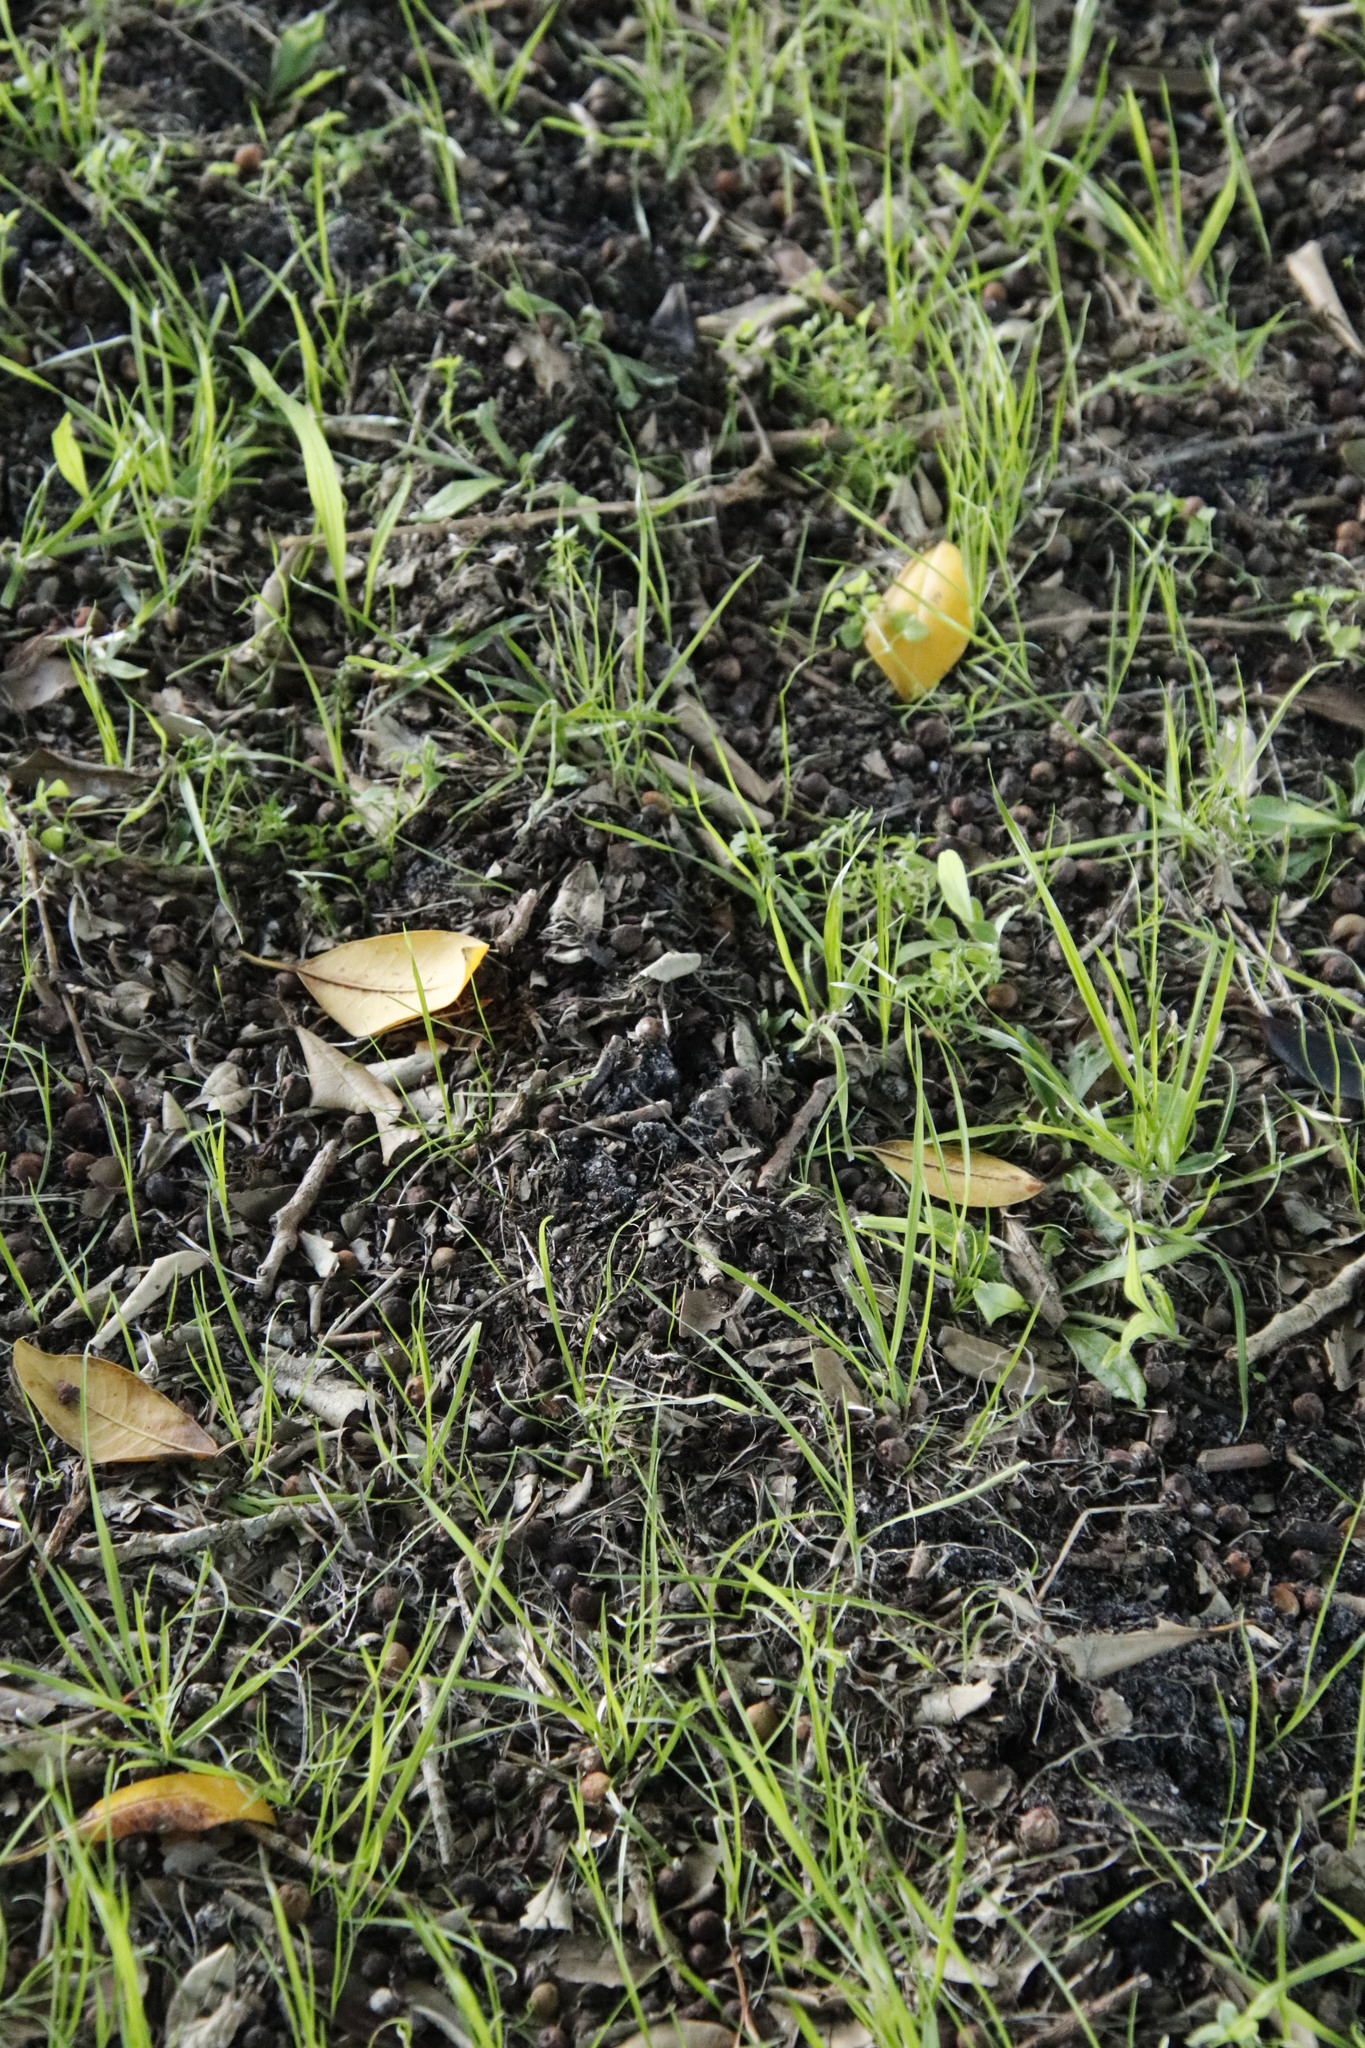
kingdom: Animalia
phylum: Chordata
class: Mammalia
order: Afrosoricida
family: Chrysochloridae
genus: Chrysochloris
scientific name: Chrysochloris asiatica
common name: Cape golden mole
